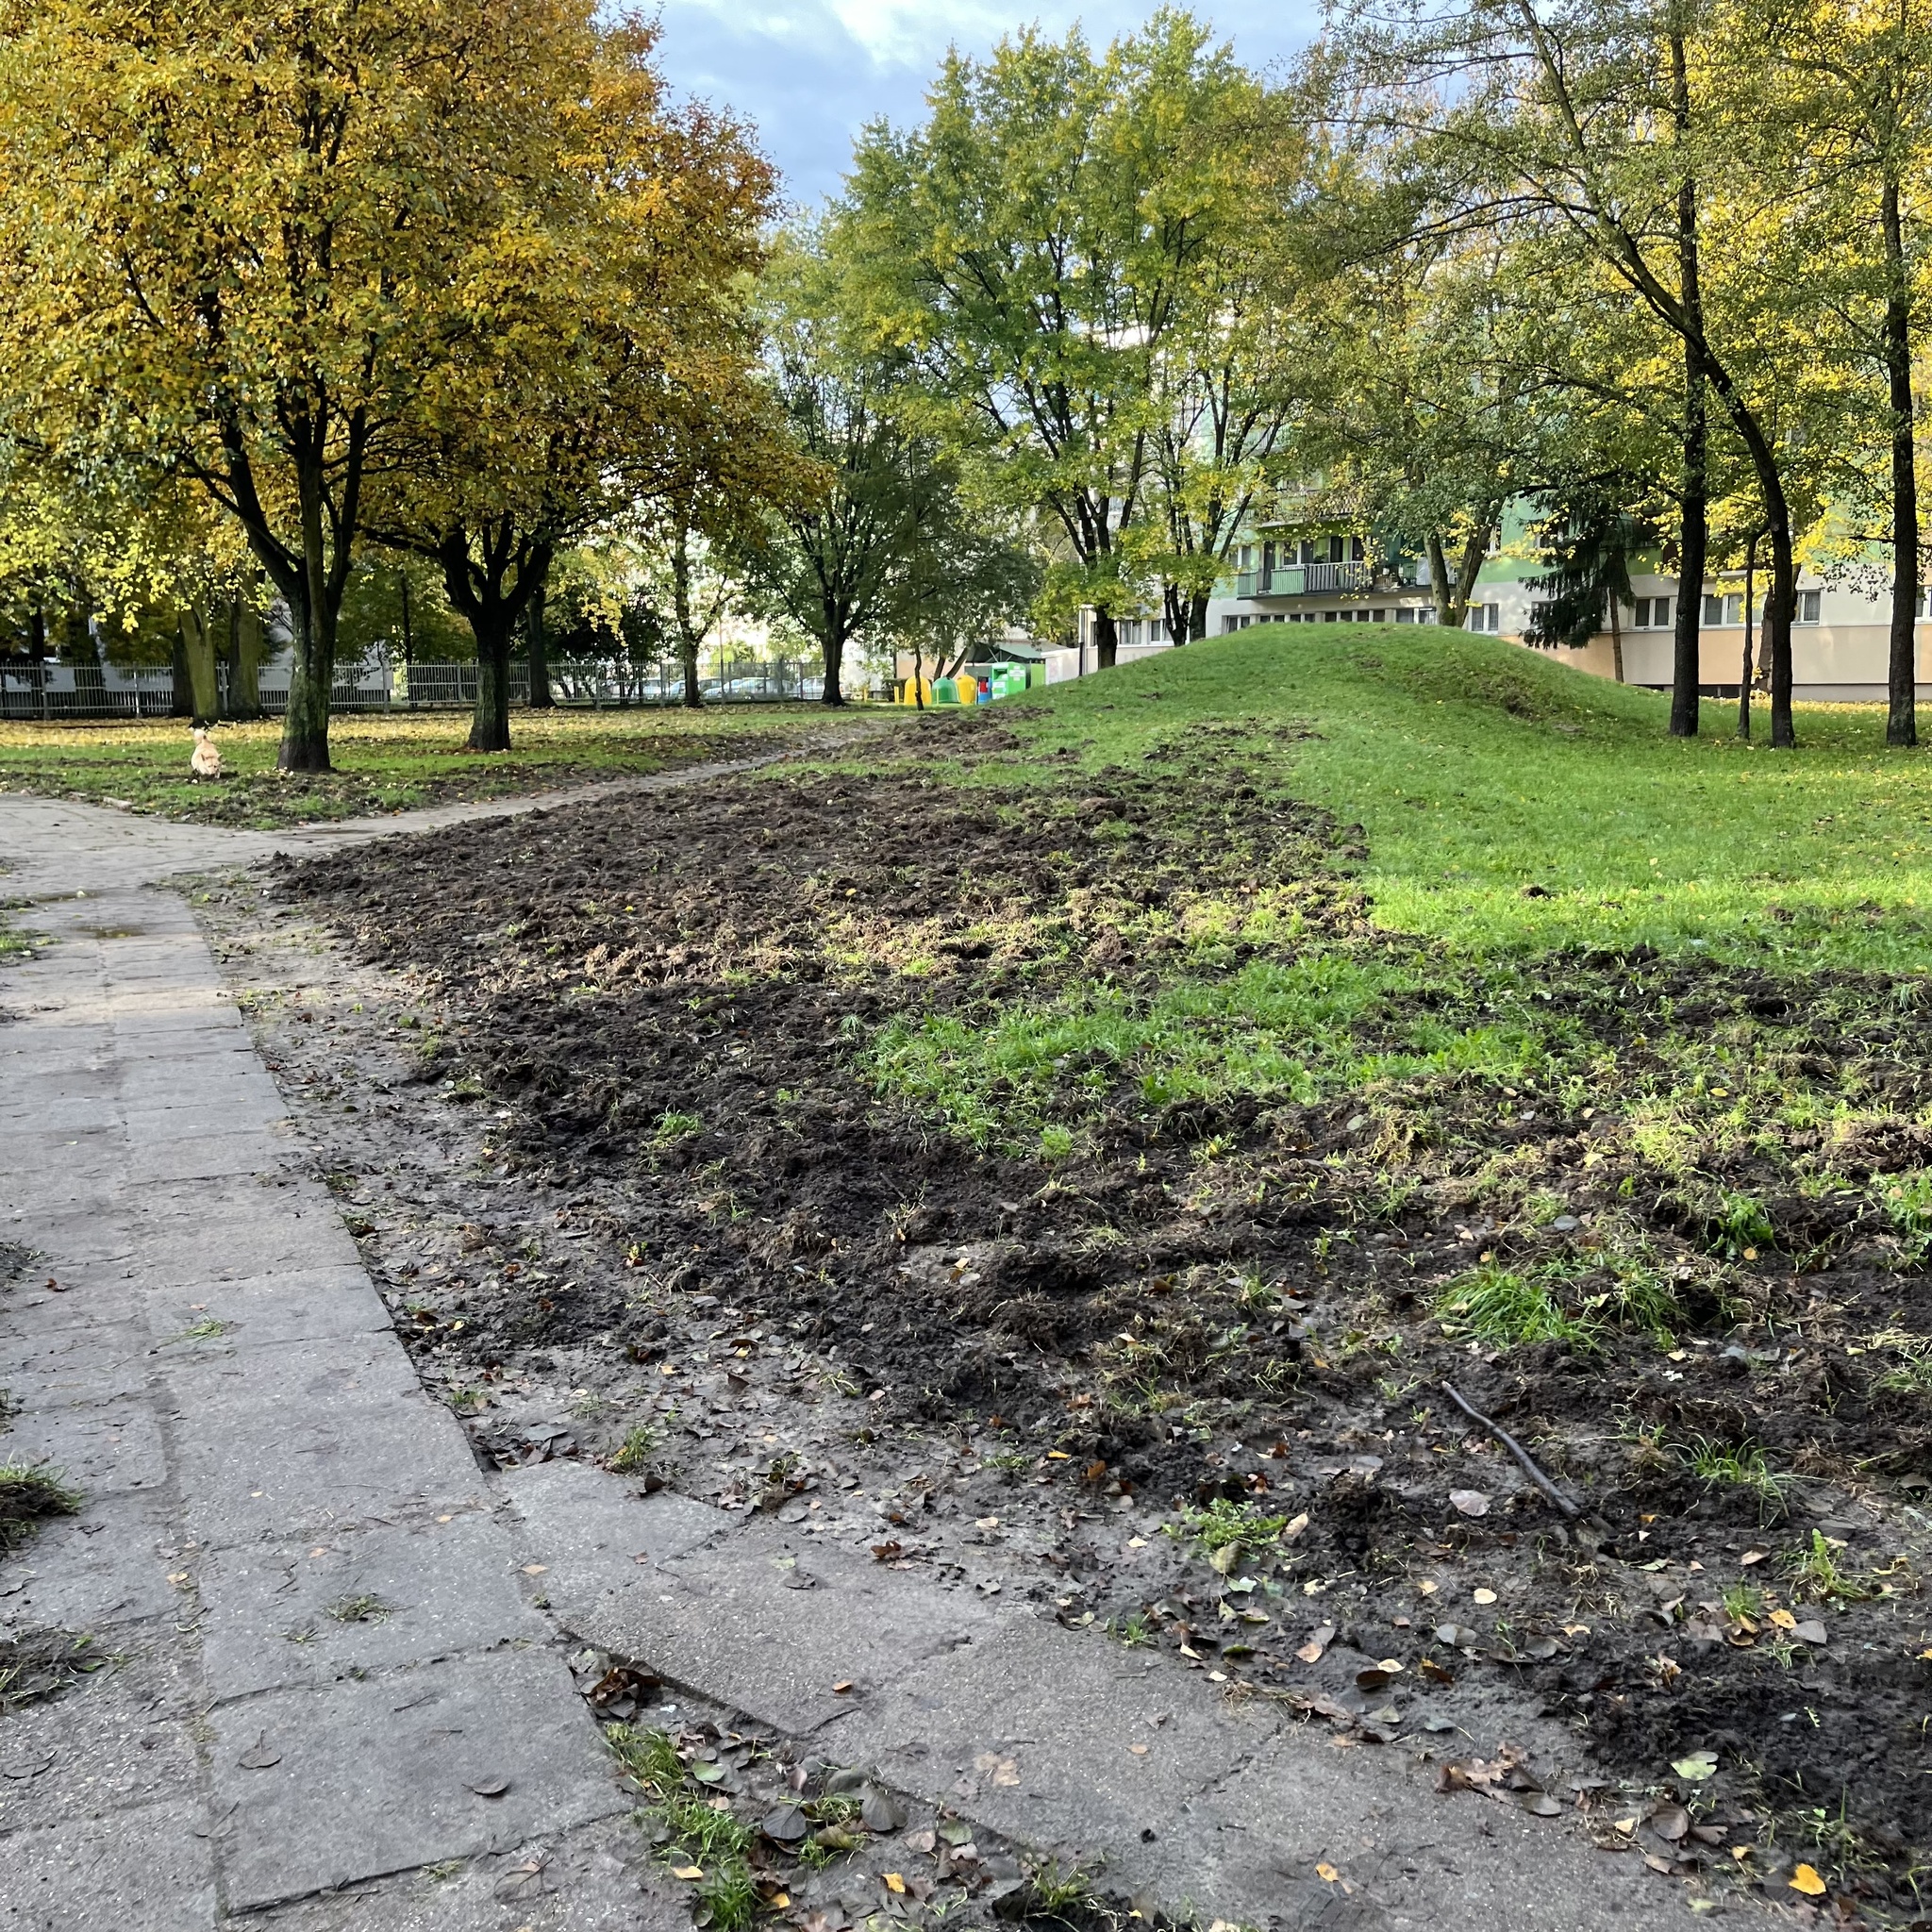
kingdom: Animalia
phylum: Chordata
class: Mammalia
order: Artiodactyla
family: Suidae
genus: Sus
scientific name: Sus scrofa
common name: Wild boar
